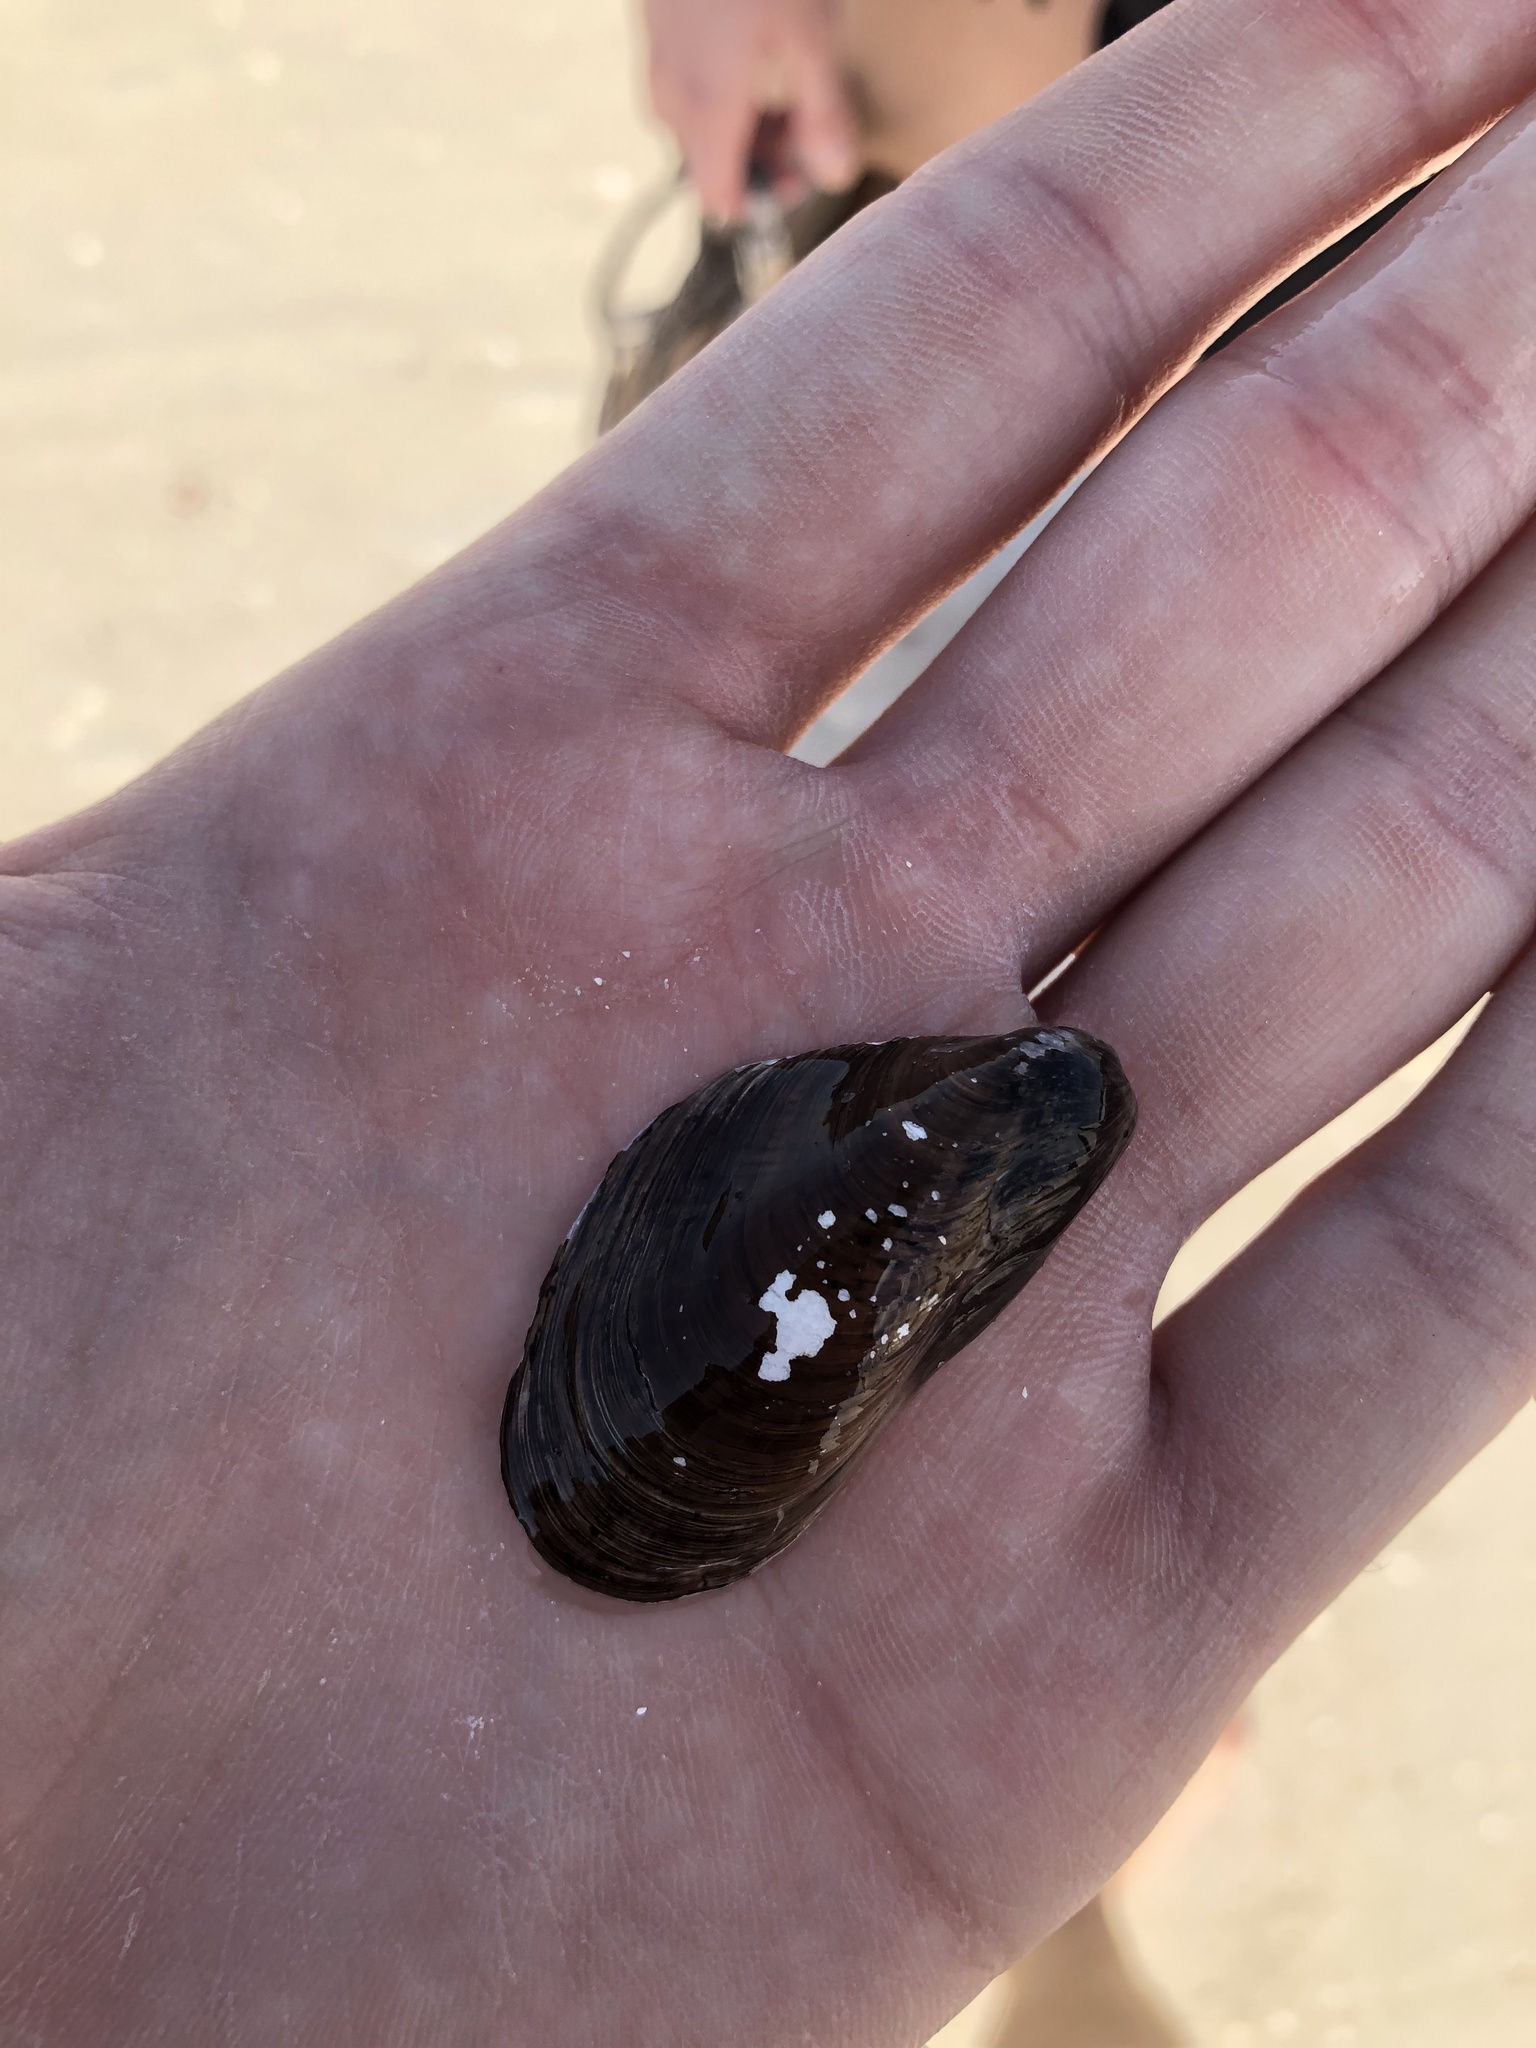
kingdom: Animalia
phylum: Mollusca
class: Bivalvia
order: Mytilida
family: Mytilidae
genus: Modiolus
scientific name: Modiolus squamosus
